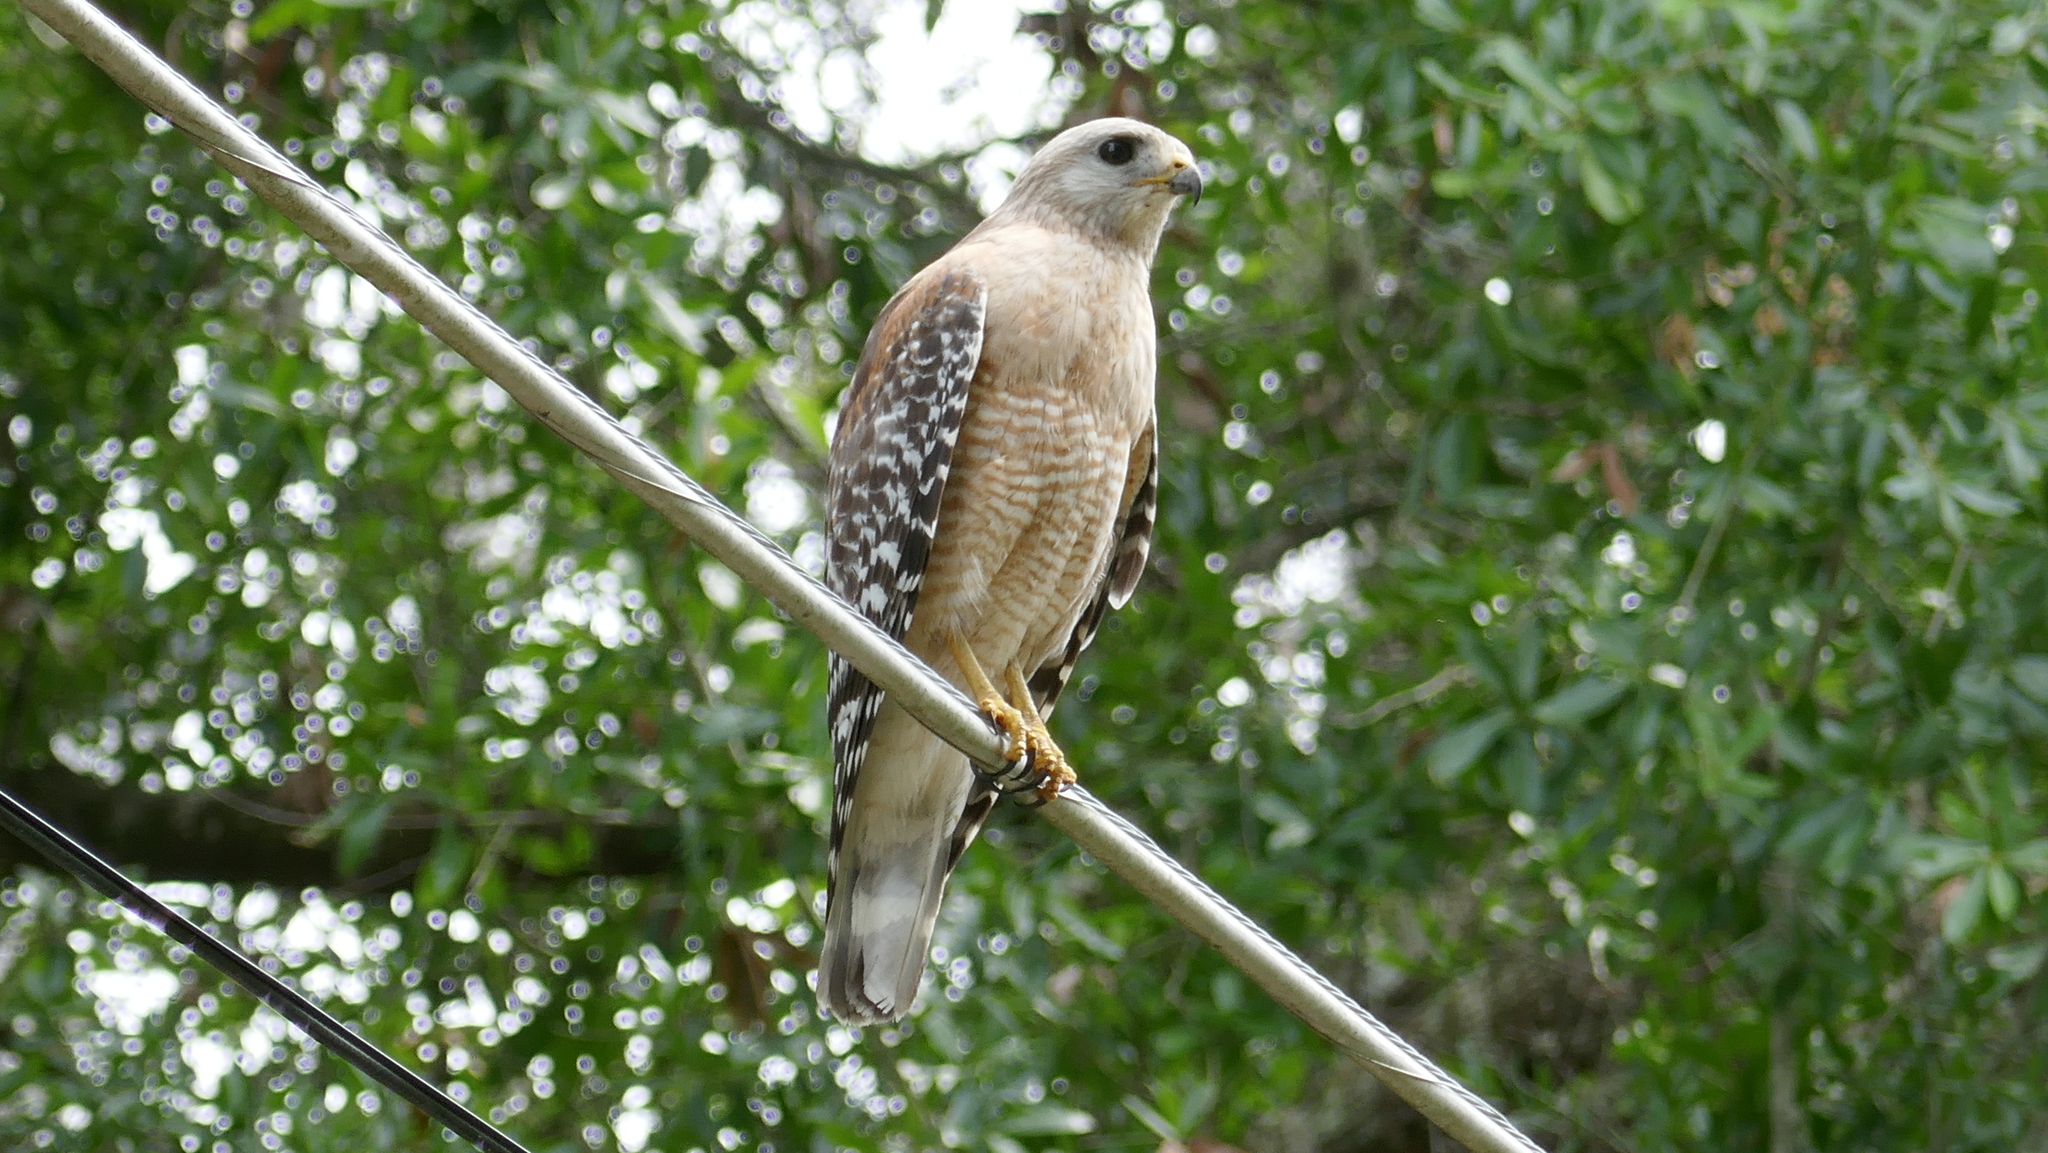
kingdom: Animalia
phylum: Chordata
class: Aves
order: Accipitriformes
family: Accipitridae
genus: Buteo
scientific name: Buteo lineatus
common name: Red-shouldered hawk
